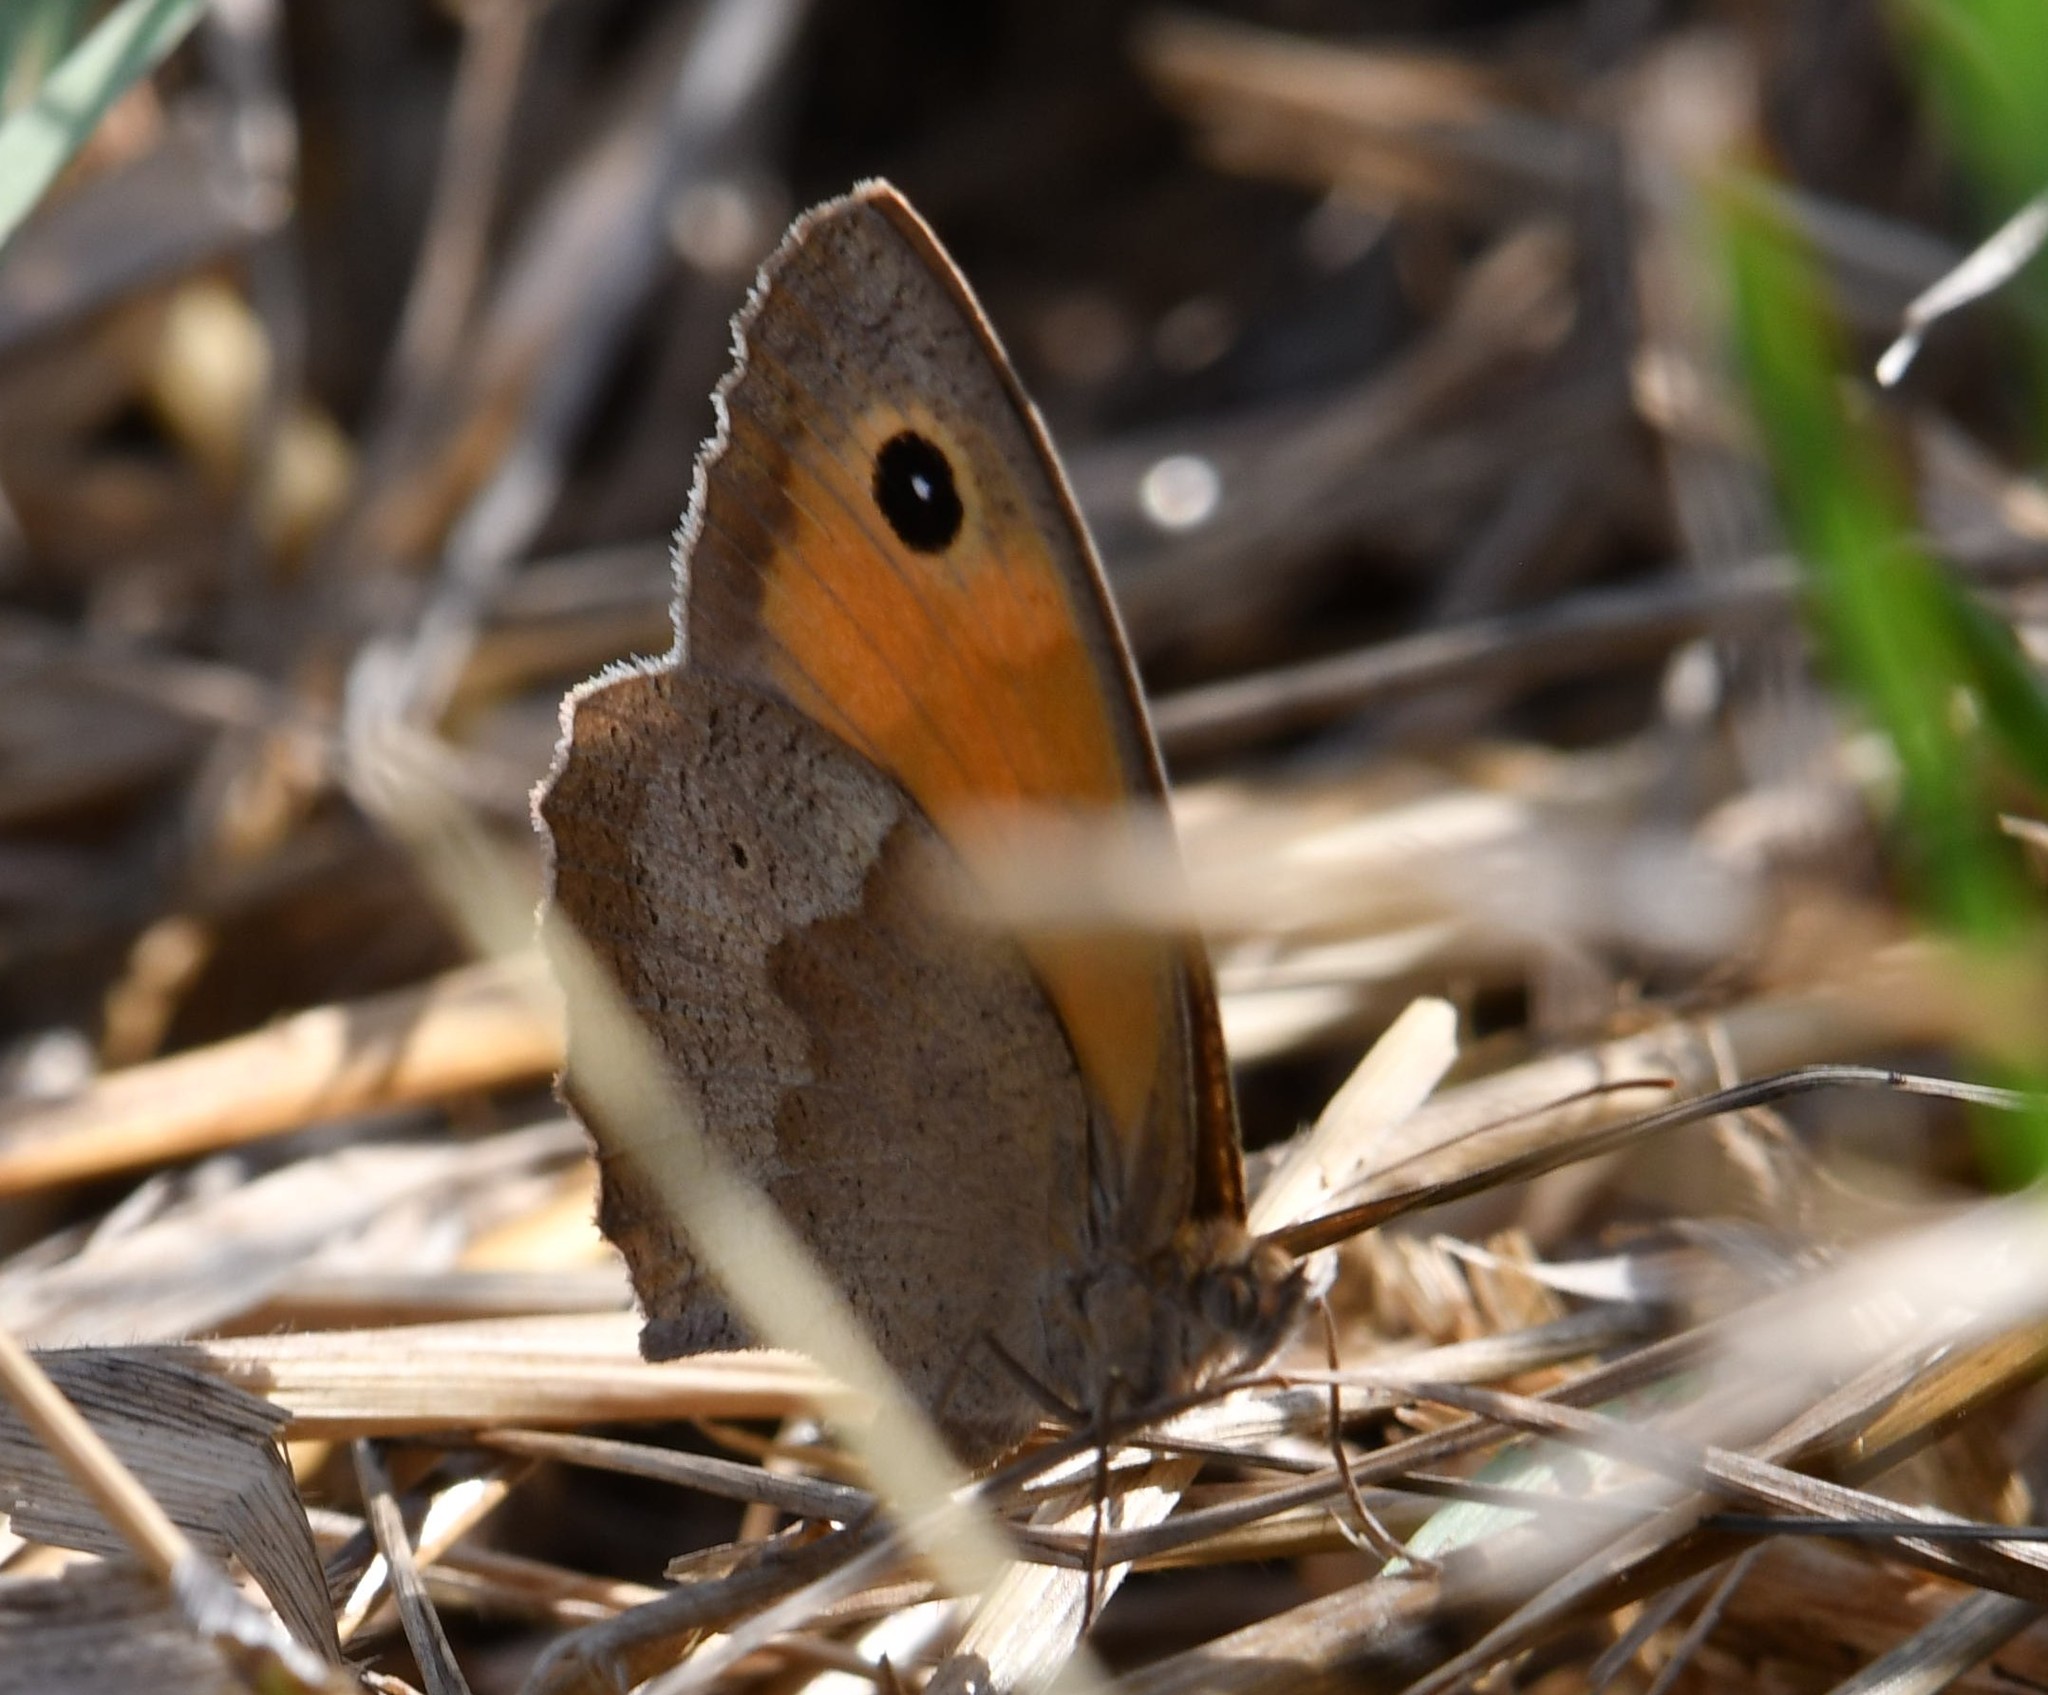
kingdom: Animalia
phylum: Arthropoda
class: Insecta
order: Lepidoptera
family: Nymphalidae
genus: Maniola
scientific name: Maniola jurtina
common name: Meadow brown
